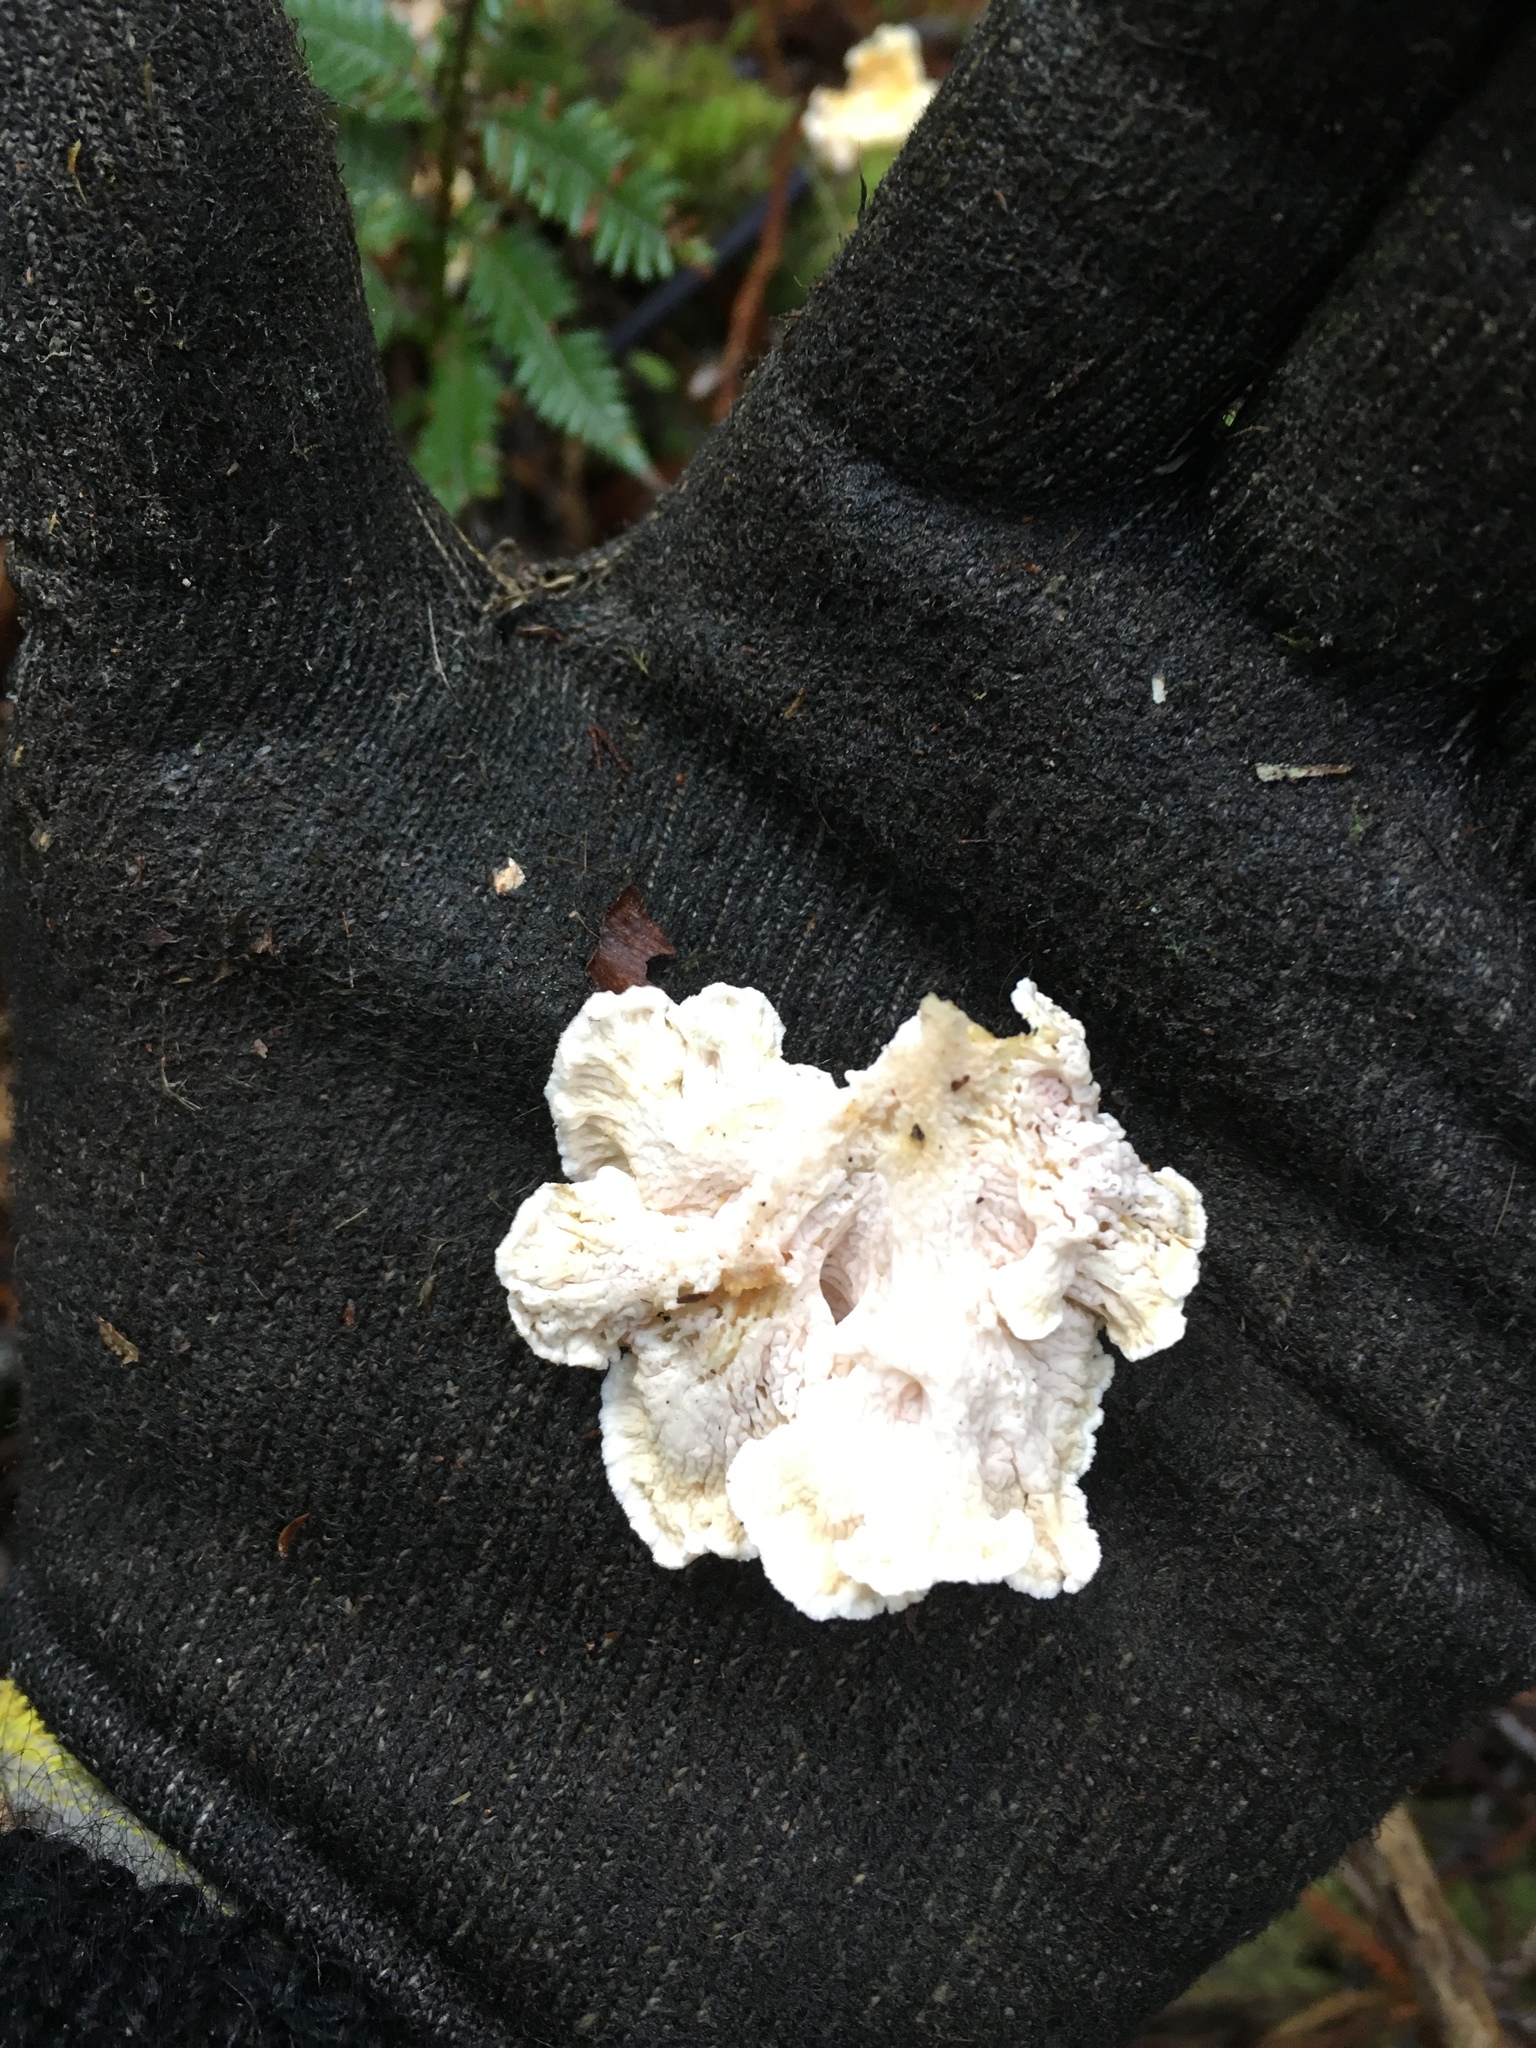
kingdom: Fungi
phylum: Basidiomycota
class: Agaricomycetes
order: Amylocorticiales
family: Amylocorticiaceae
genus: Podoserpula
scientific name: Podoserpula pusio
